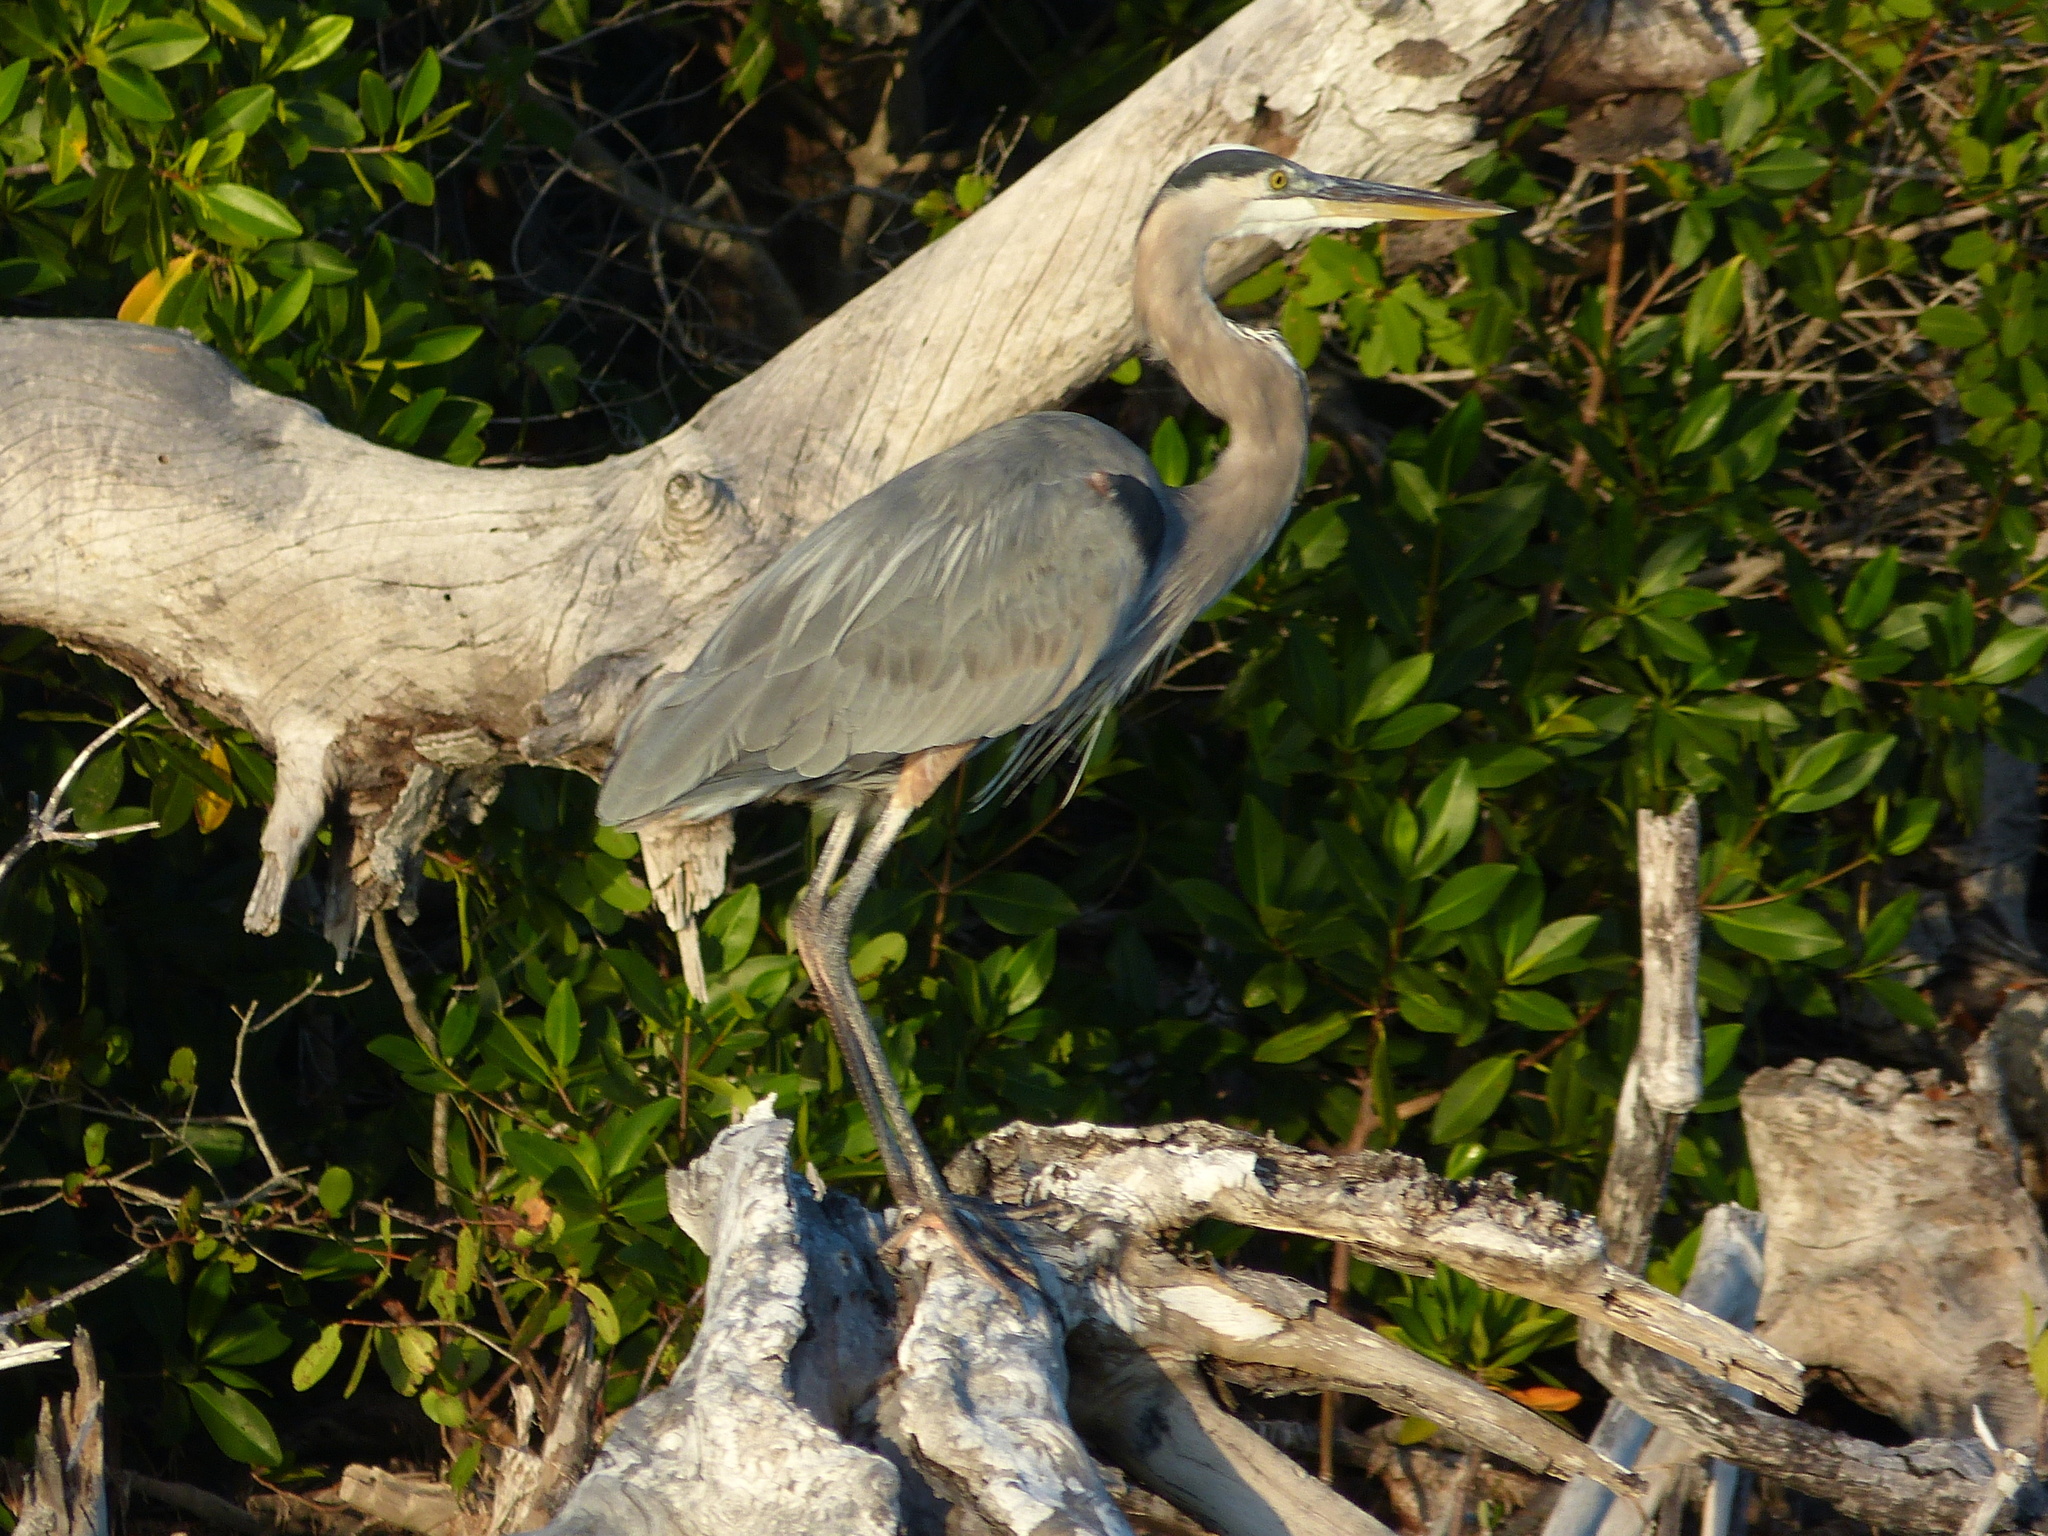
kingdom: Animalia
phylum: Chordata
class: Aves
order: Pelecaniformes
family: Ardeidae
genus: Ardea
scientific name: Ardea herodias
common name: Great blue heron
